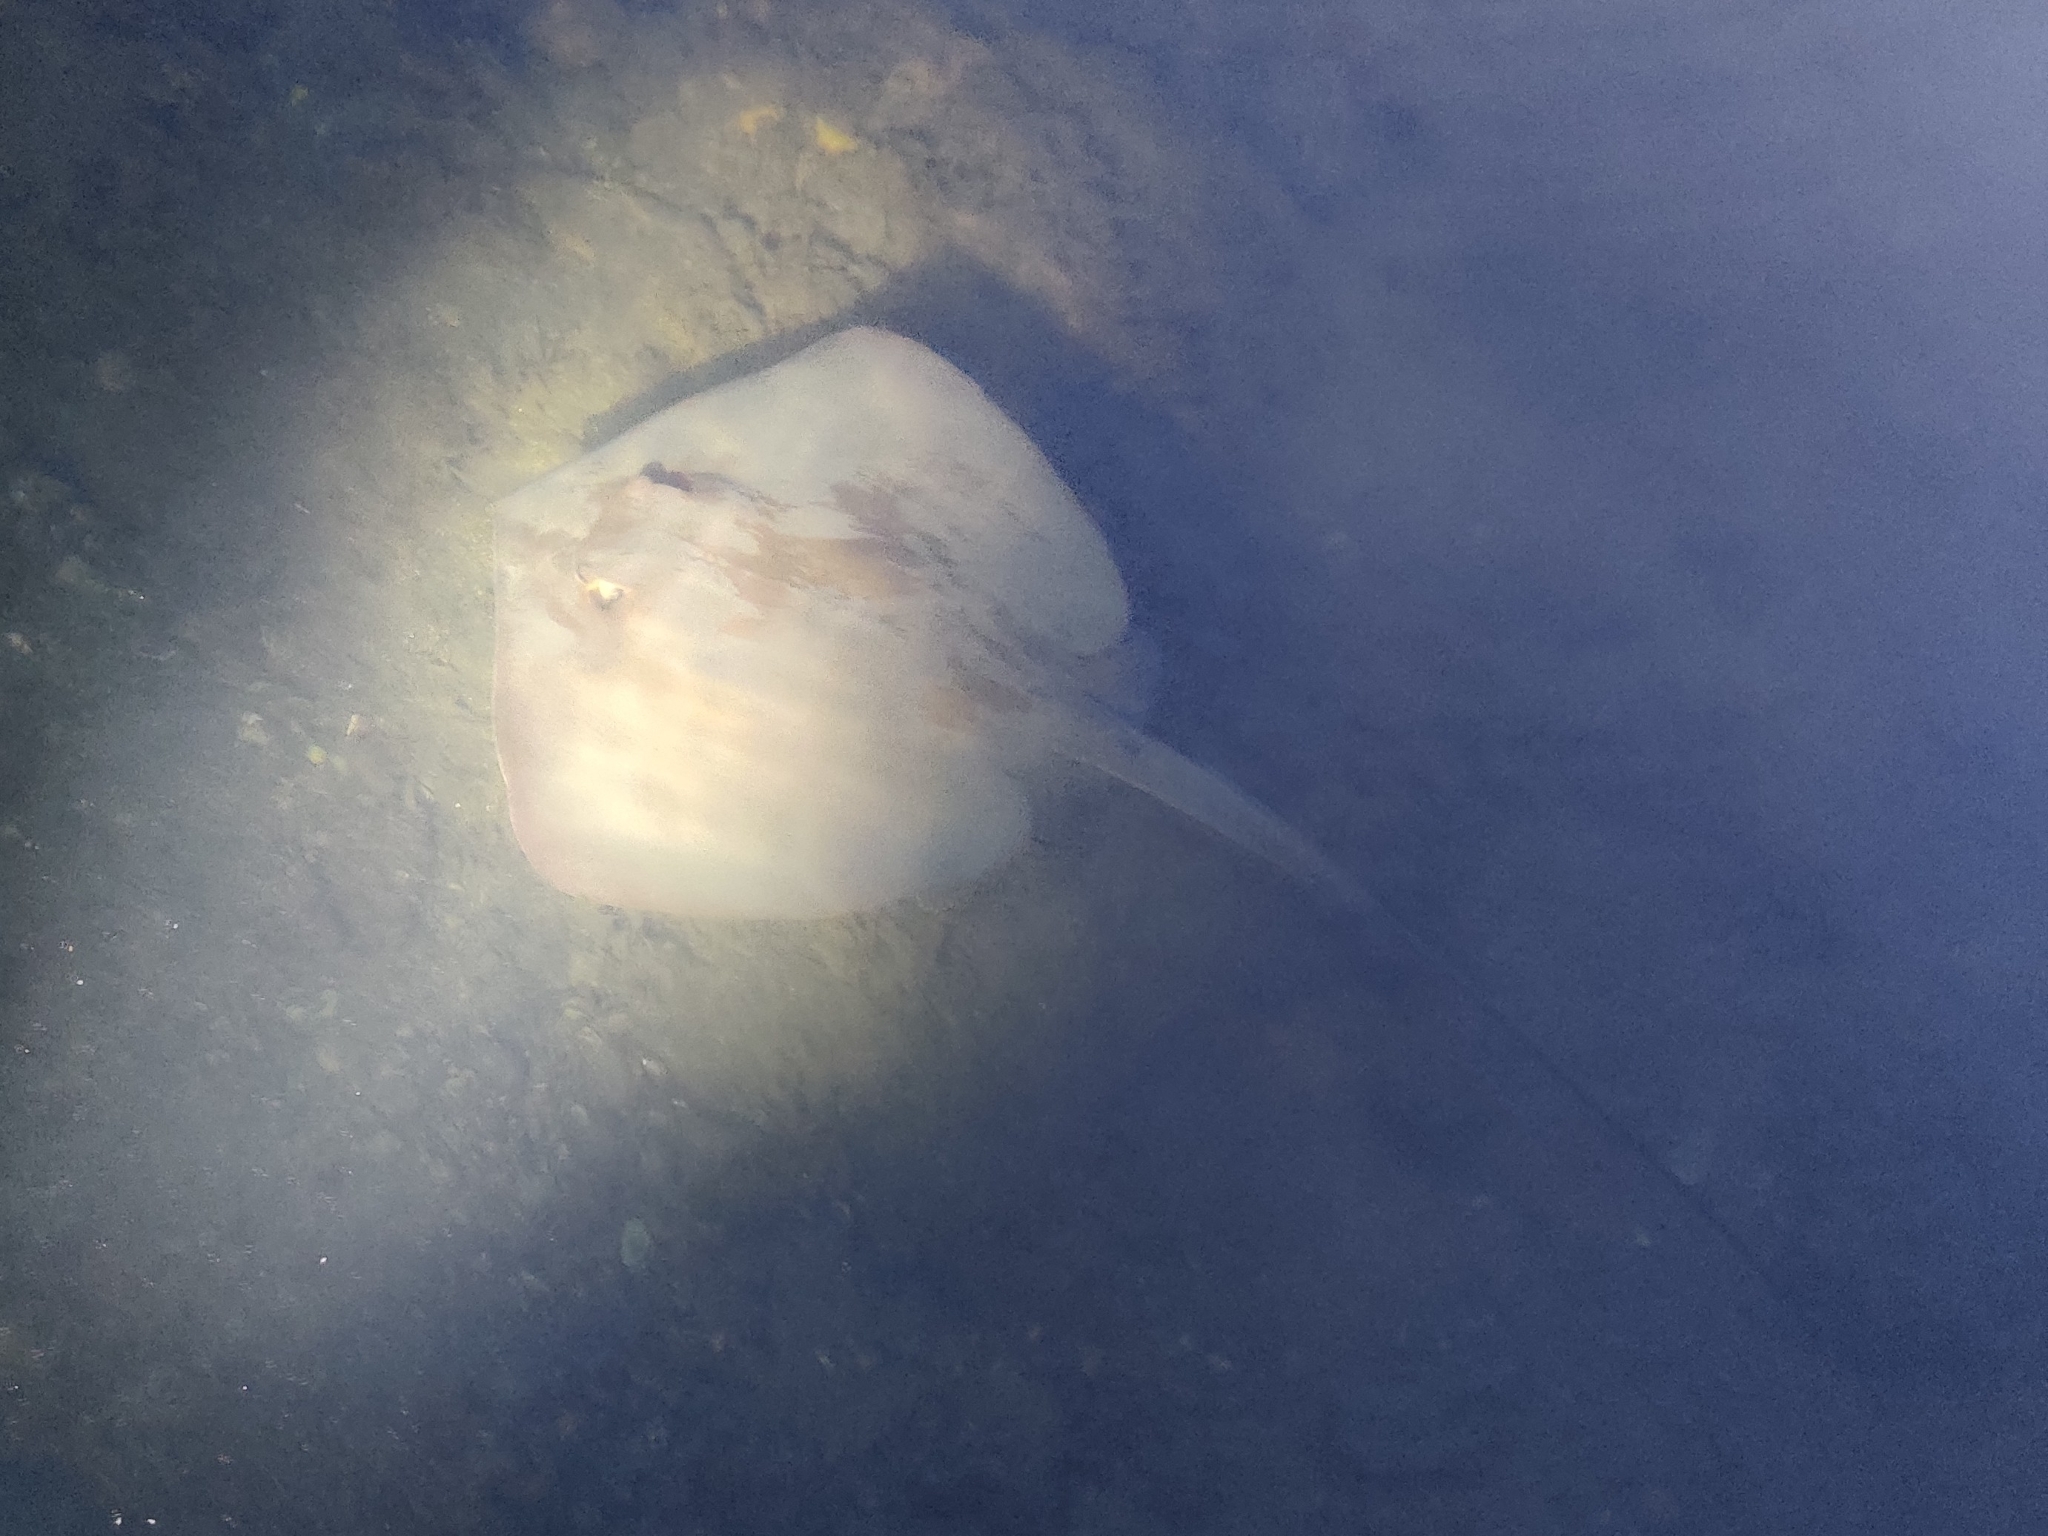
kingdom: Animalia
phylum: Chordata
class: Elasmobranchii
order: Myliobatiformes
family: Dasyatidae
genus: Hemitrygon
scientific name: Hemitrygon fluviorum
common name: Estuary stingray
